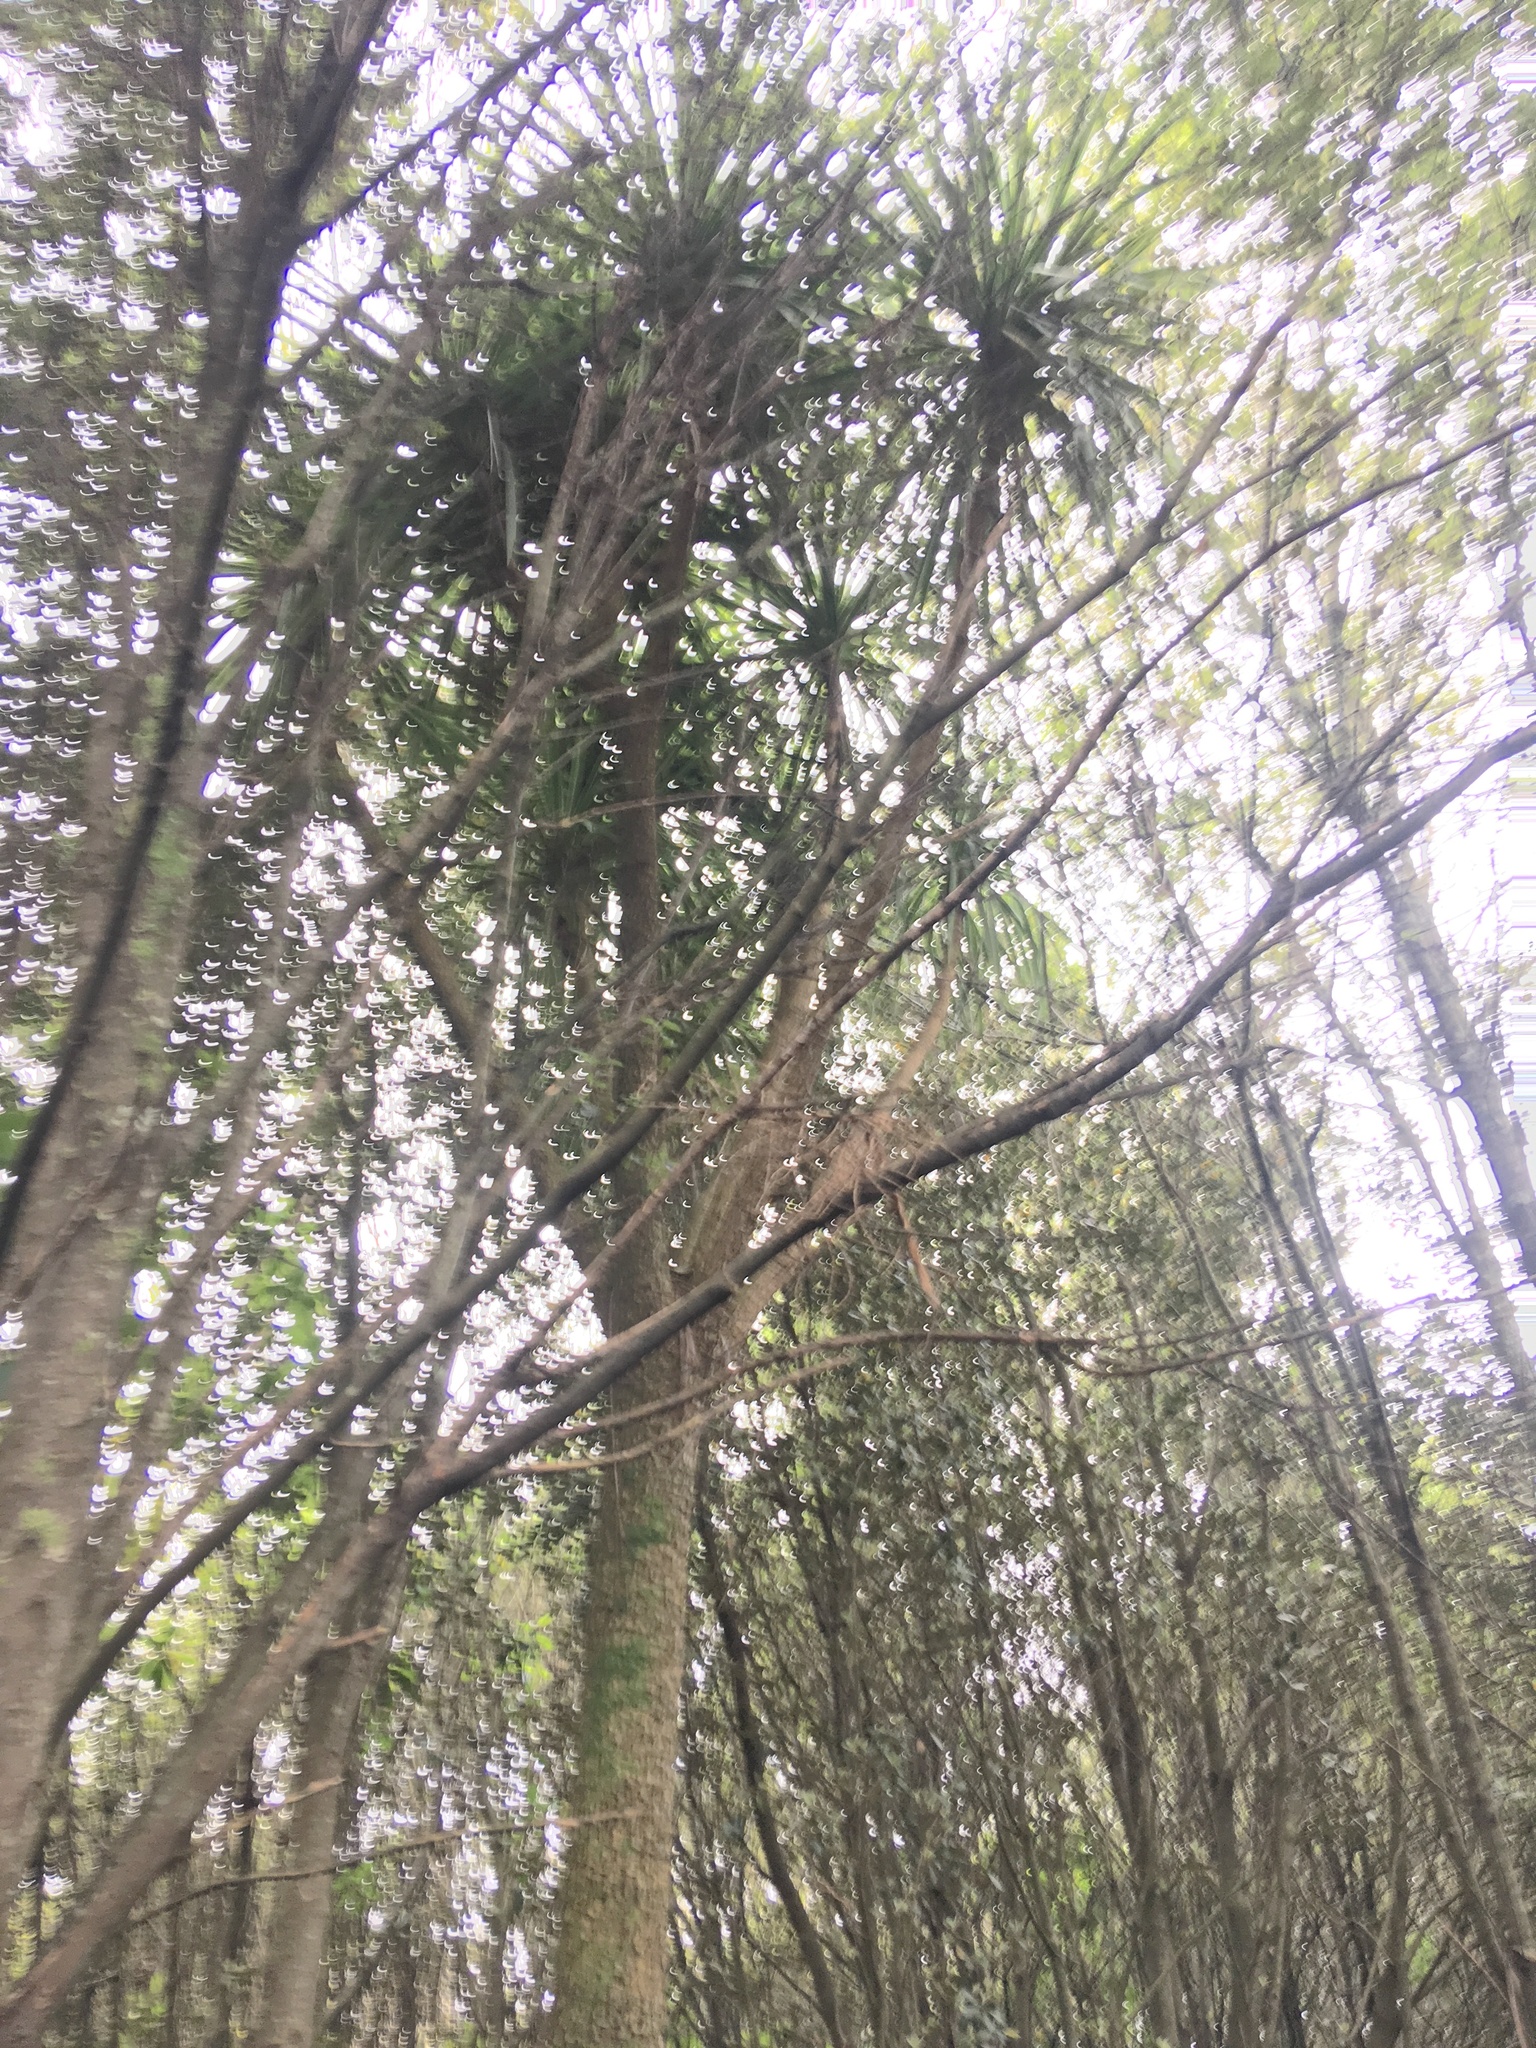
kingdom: Plantae
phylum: Tracheophyta
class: Liliopsida
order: Asparagales
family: Asparagaceae
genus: Cordyline
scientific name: Cordyline australis
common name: Cabbage-palm
